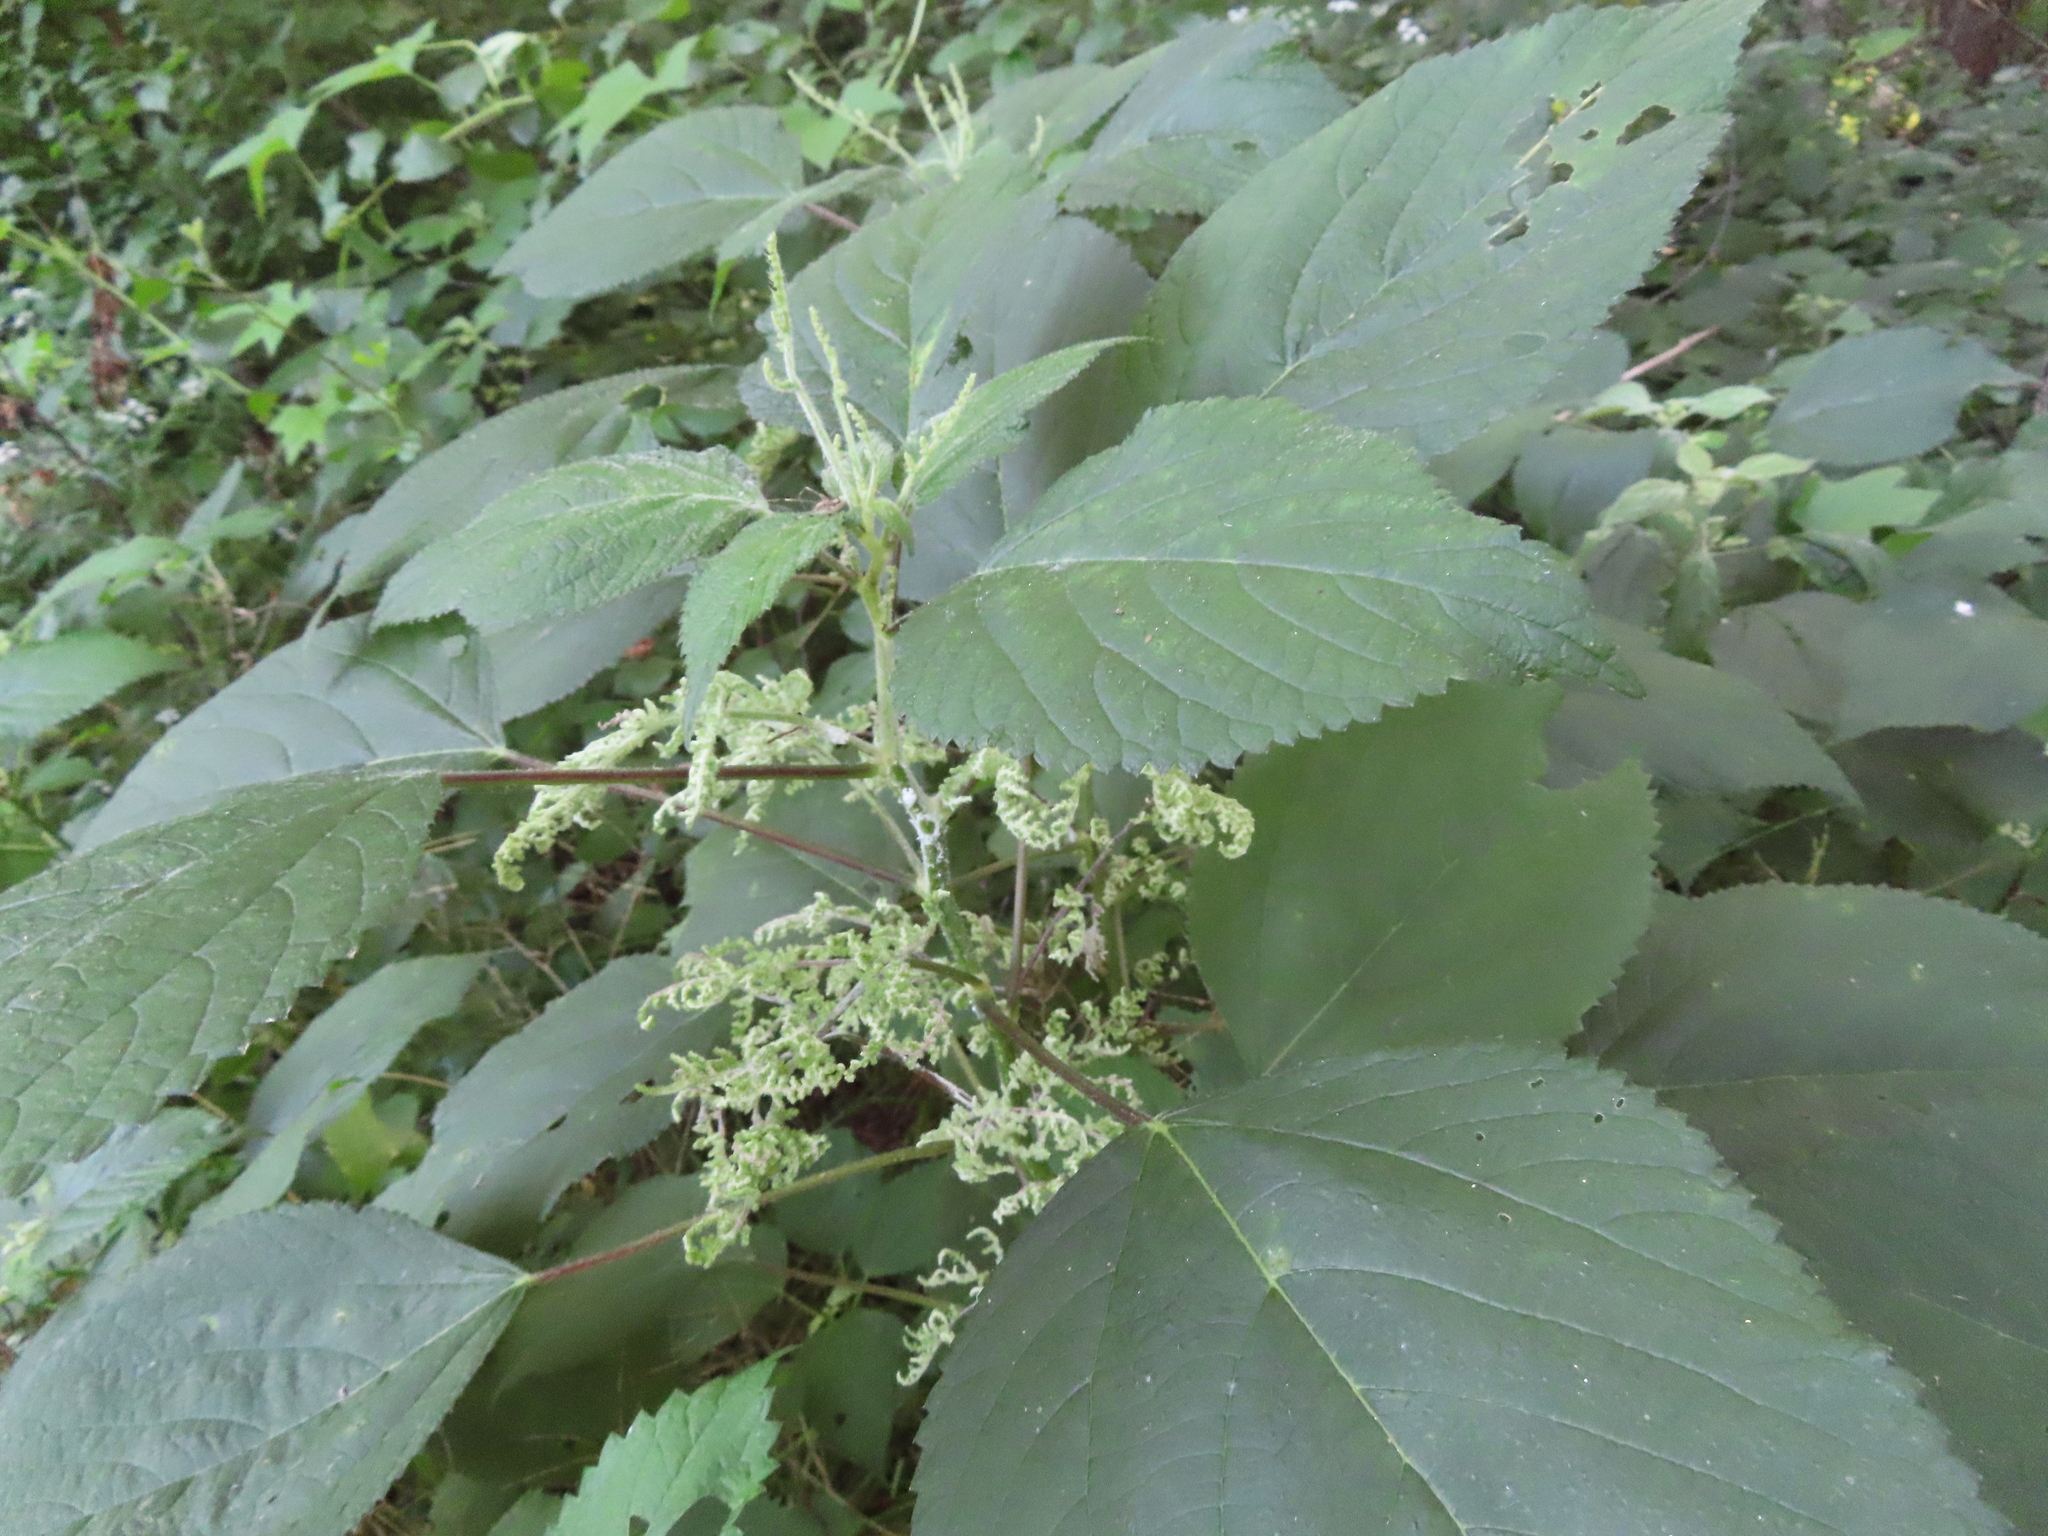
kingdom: Plantae
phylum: Tracheophyta
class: Magnoliopsida
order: Rosales
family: Urticaceae
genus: Laportea
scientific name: Laportea canadensis
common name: Canada nettle
